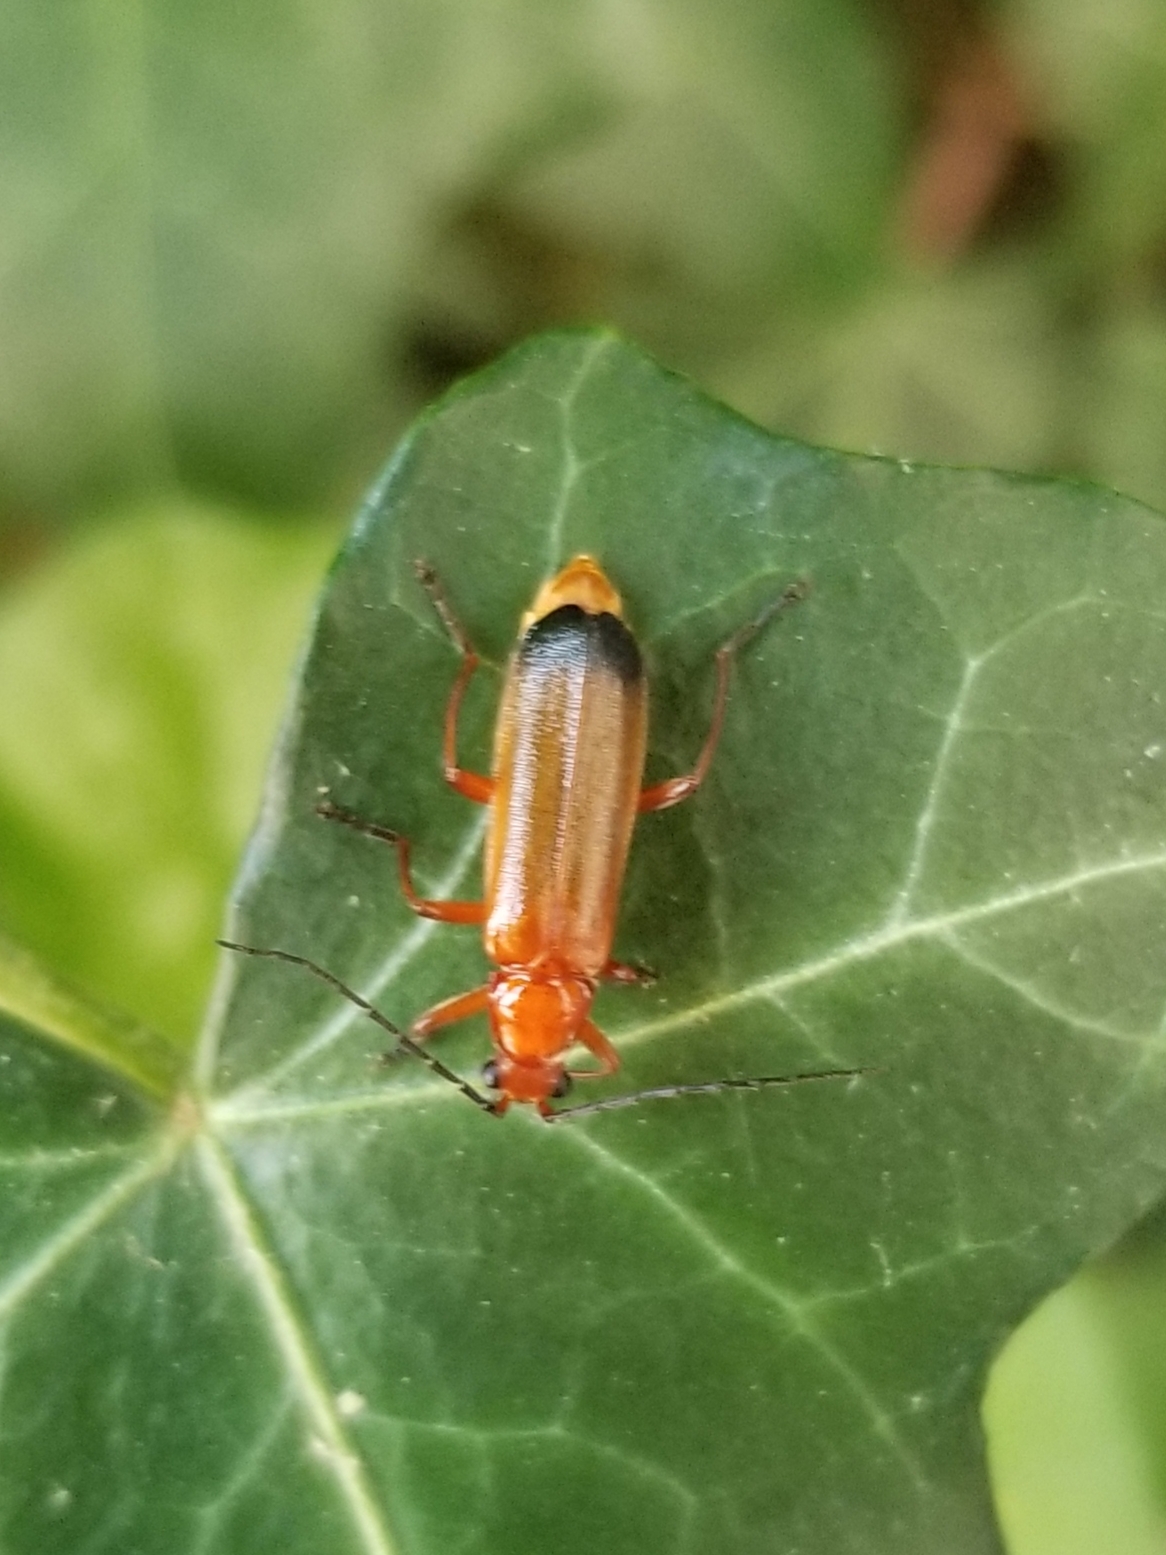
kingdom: Animalia
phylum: Arthropoda
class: Insecta
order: Coleoptera
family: Cantharidae
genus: Rhagonycha
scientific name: Rhagonycha fulva
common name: Common red soldier beetle
